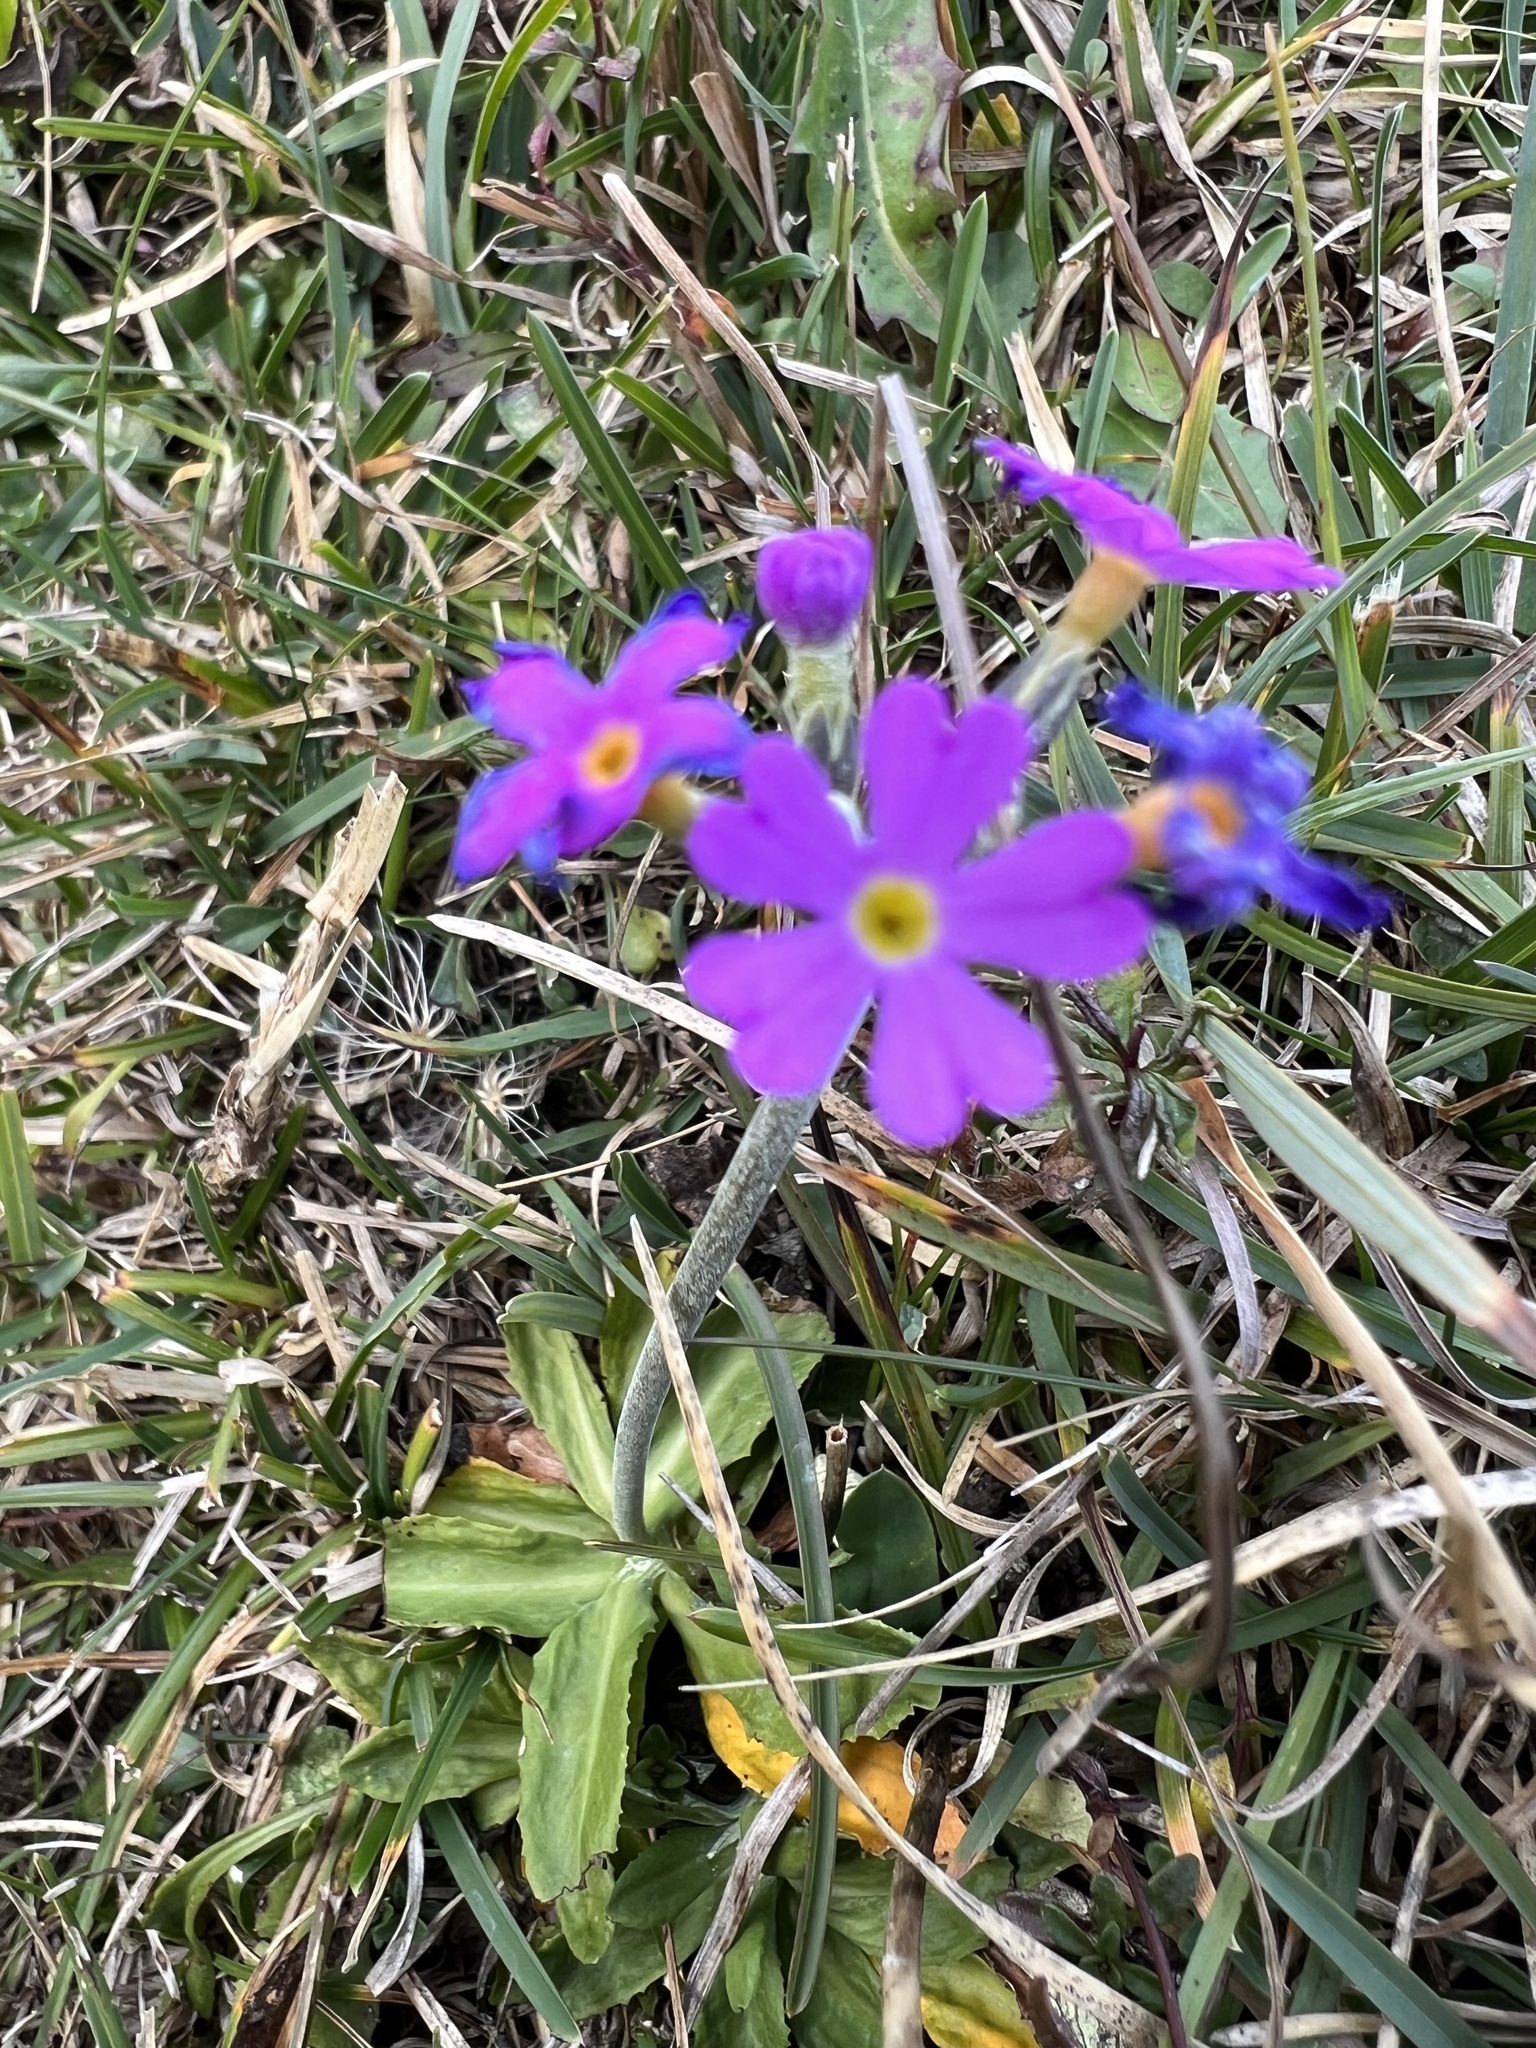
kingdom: Plantae
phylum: Tracheophyta
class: Magnoliopsida
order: Ericales
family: Primulaceae
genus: Primula
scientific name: Primula farinosa
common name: Bird's-eye primrose
